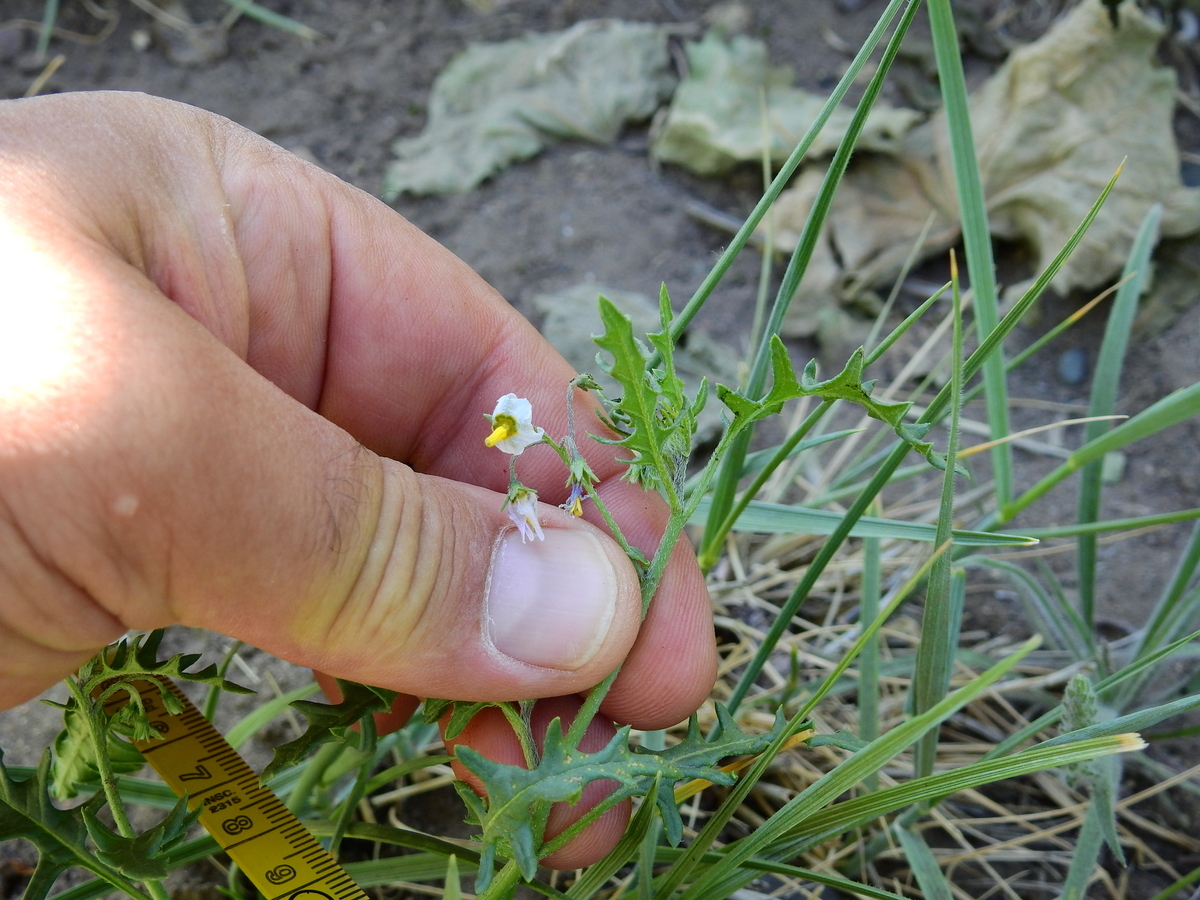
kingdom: Plantae
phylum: Tracheophyta
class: Magnoliopsida
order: Solanales
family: Solanaceae
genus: Solanum
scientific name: Solanum triflorum
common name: Small nightshade
